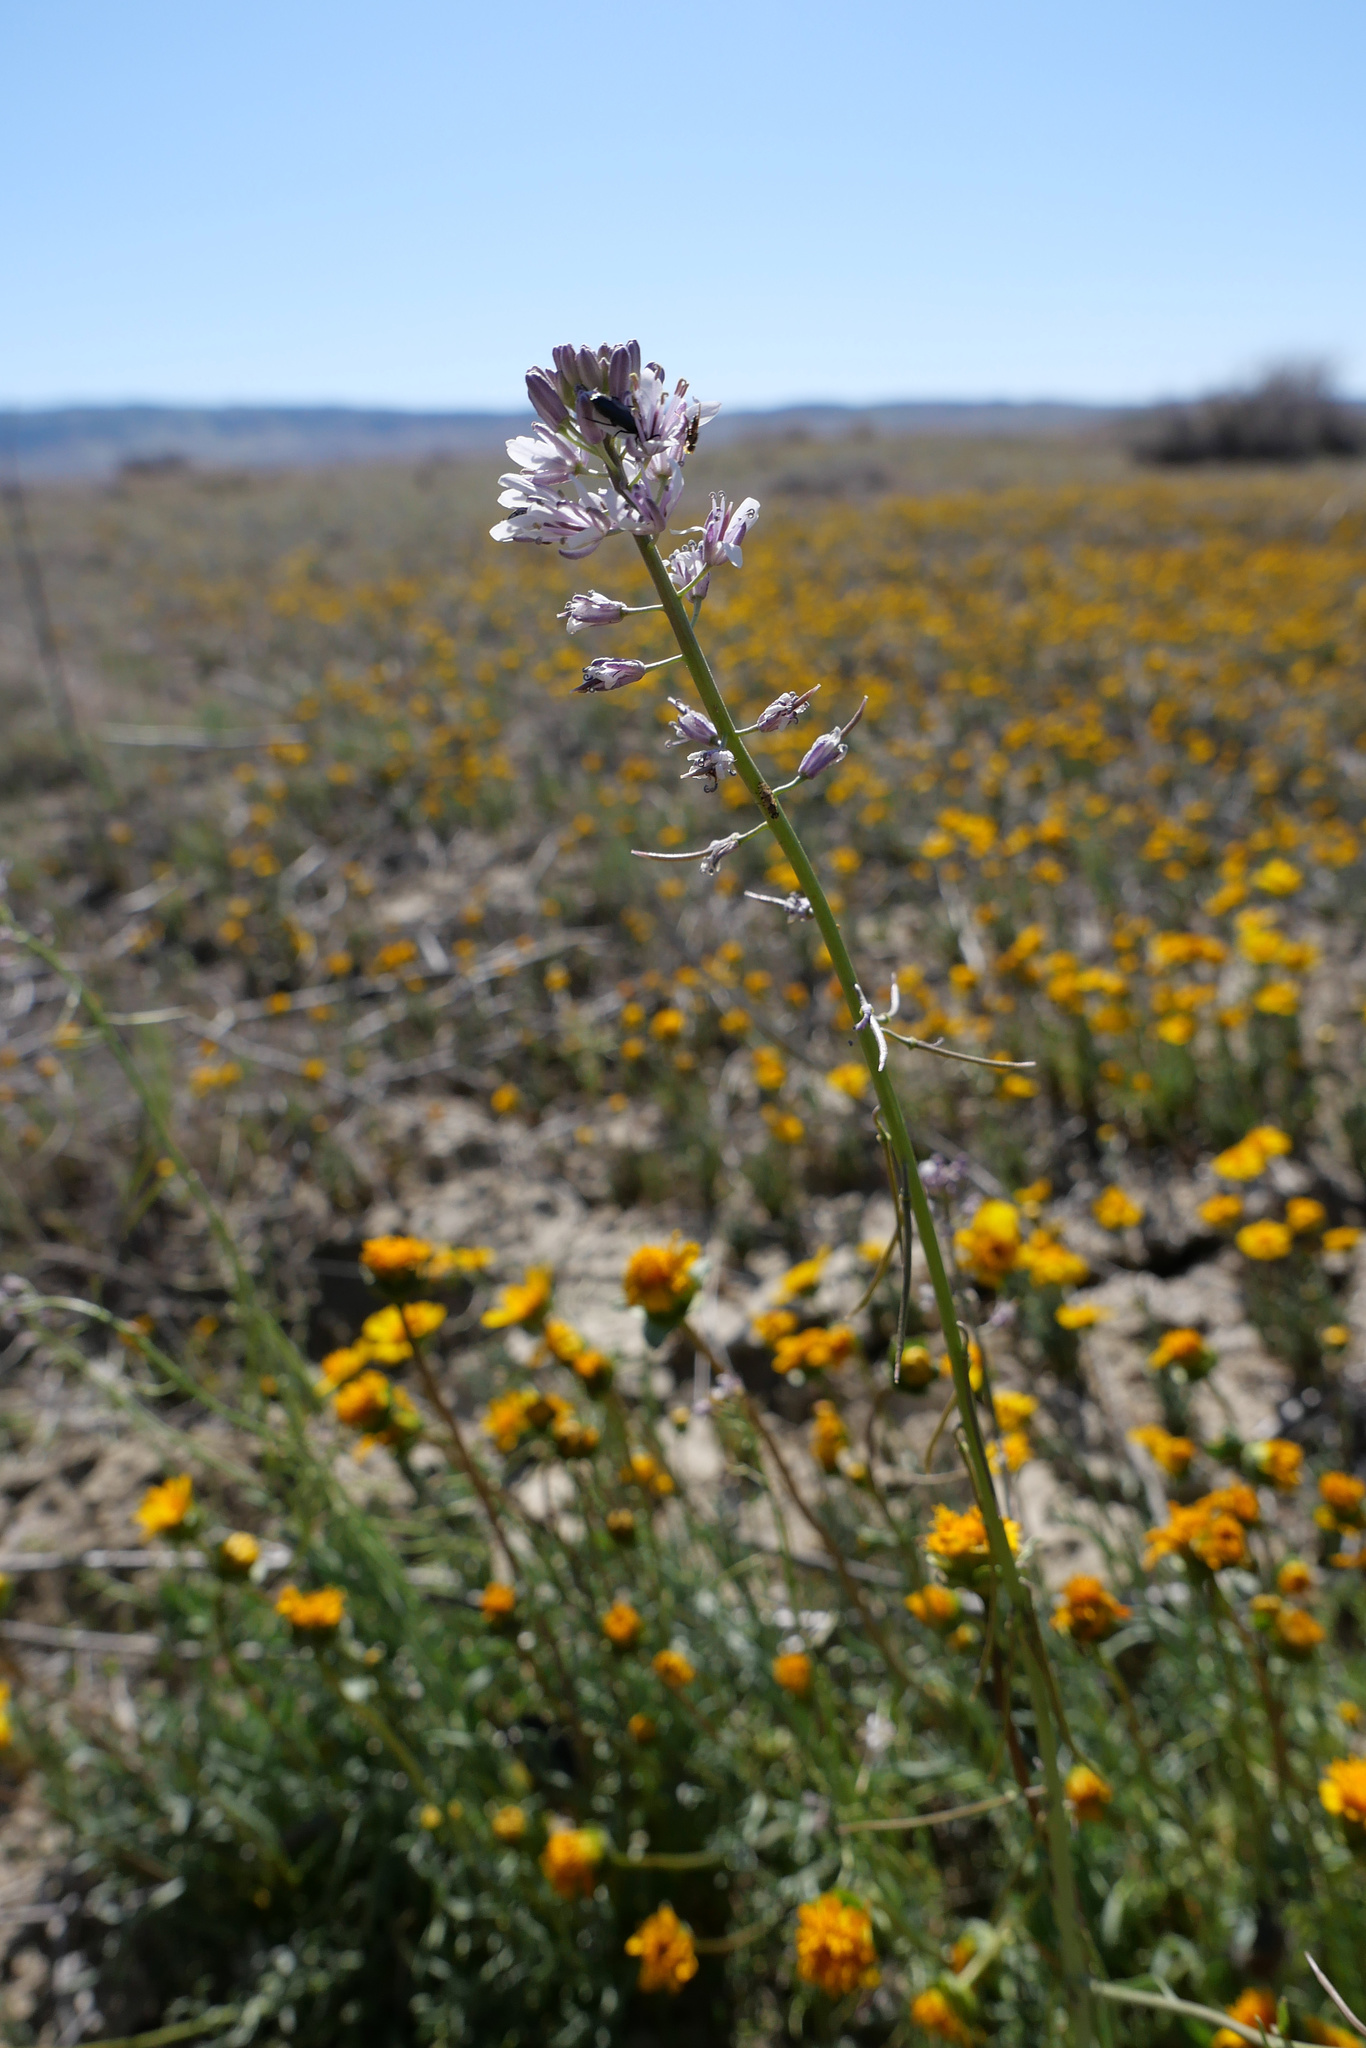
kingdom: Plantae
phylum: Tracheophyta
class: Magnoliopsida
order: Brassicales
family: Brassicaceae
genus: Streptanthus
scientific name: Streptanthus anceps
